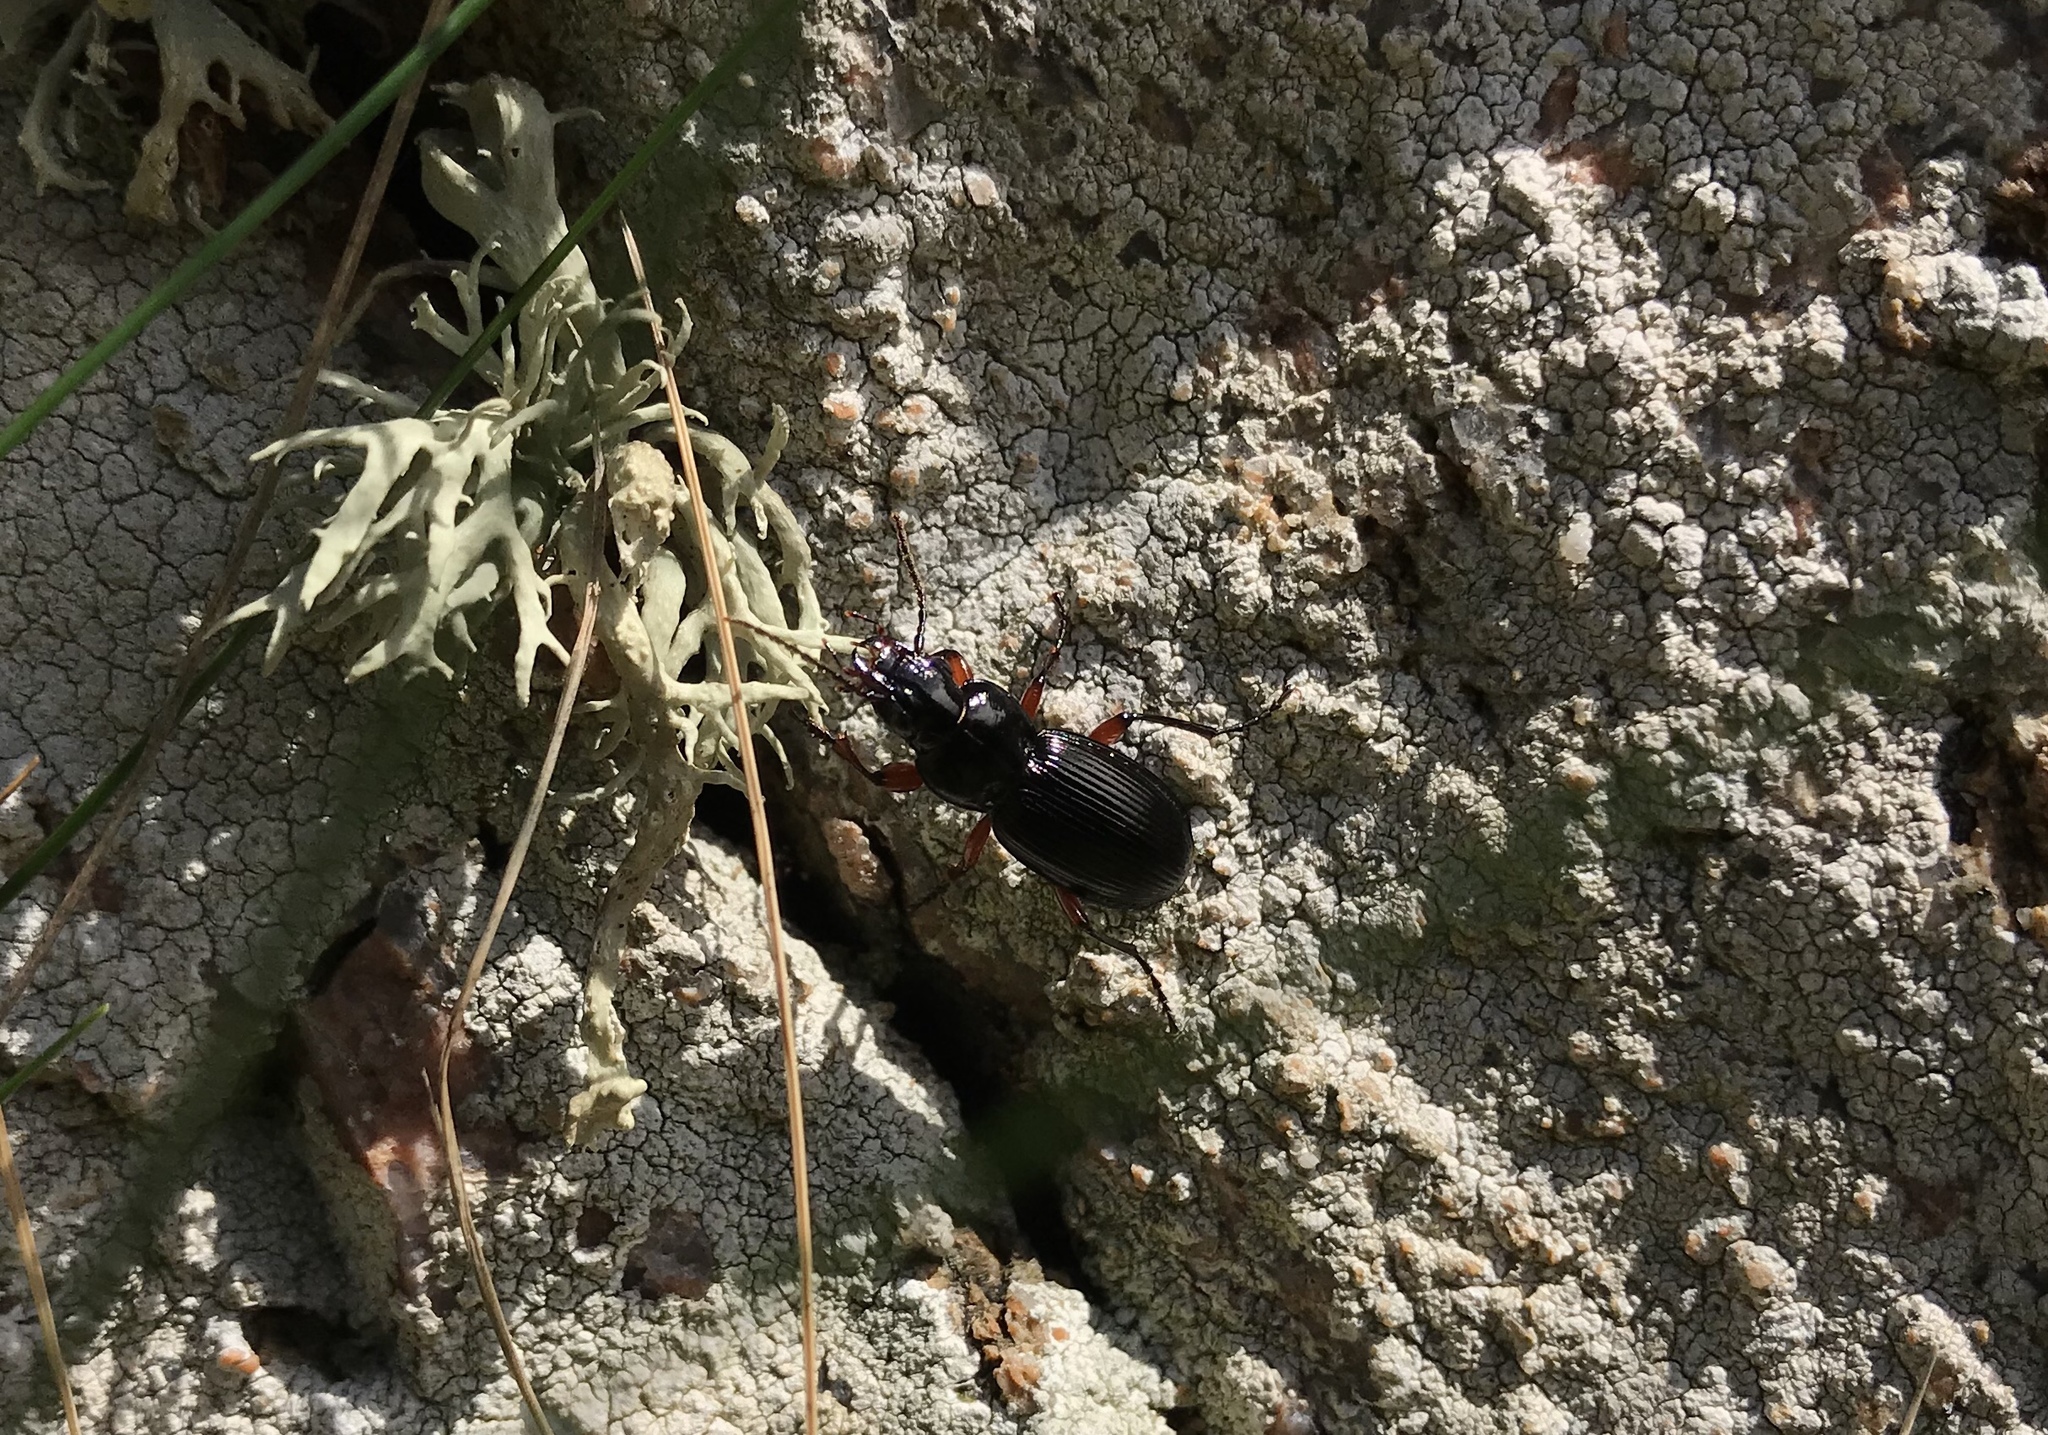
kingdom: Animalia
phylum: Arthropoda
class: Insecta
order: Coleoptera
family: Carabidae
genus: Pterostichus
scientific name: Pterostichus madidus
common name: Black clock
